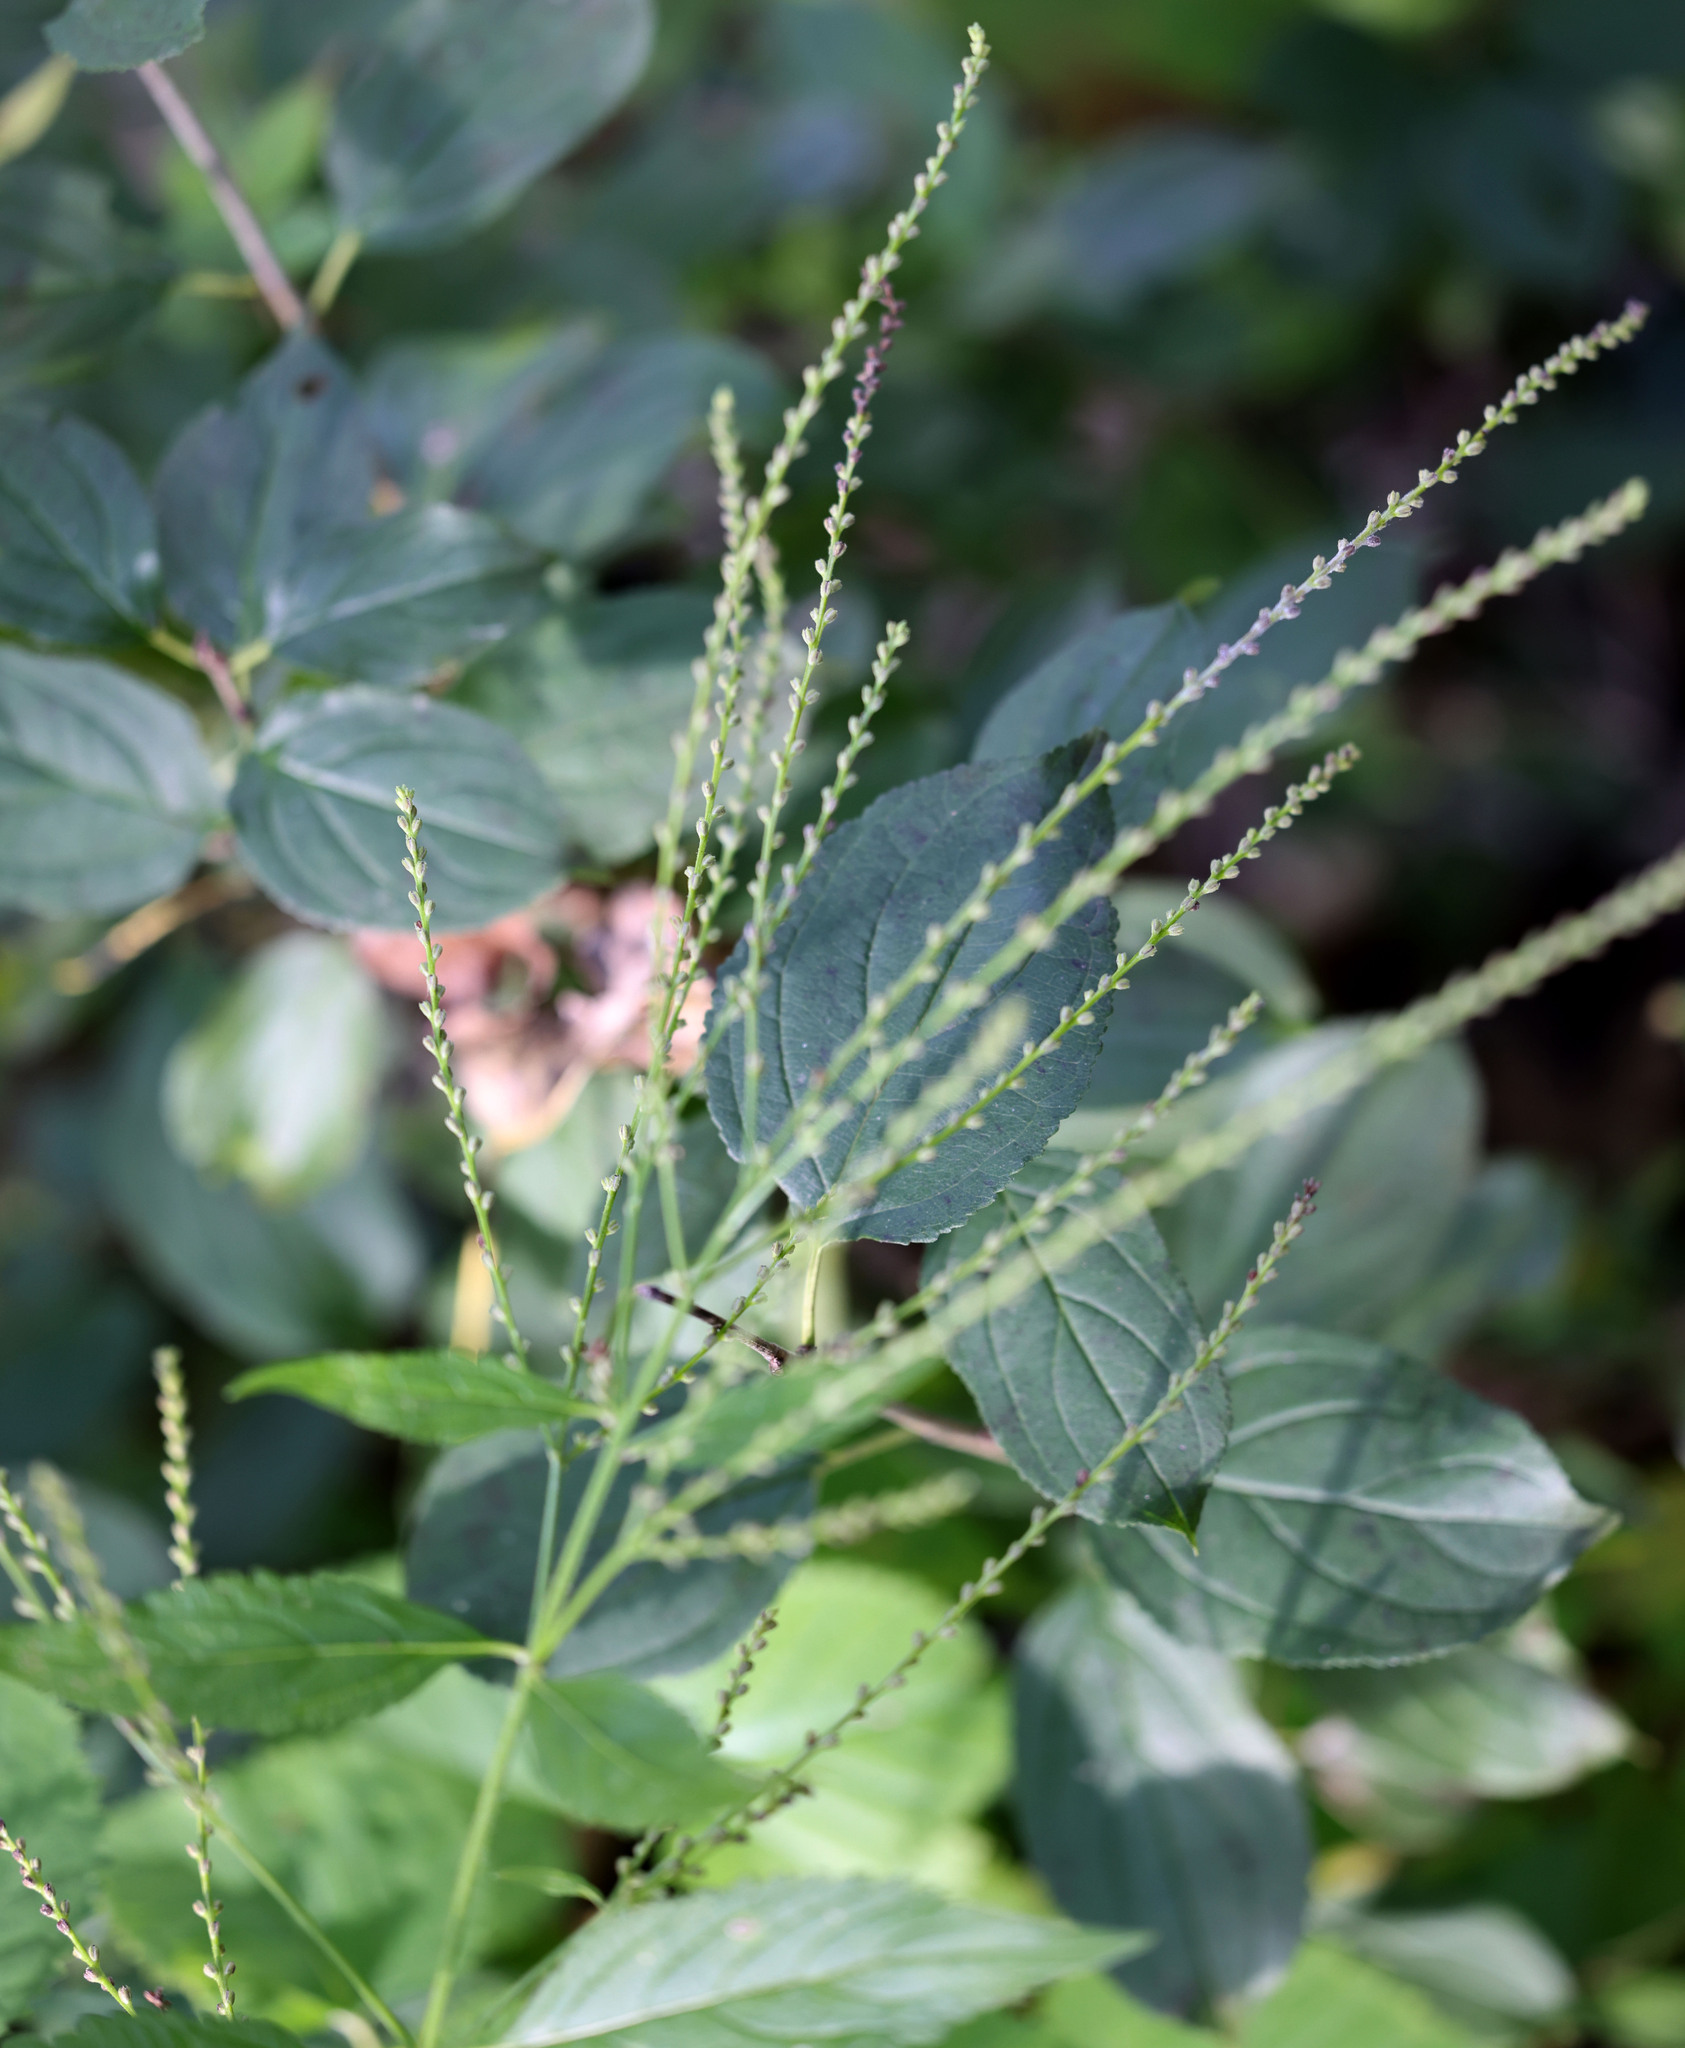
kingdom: Plantae
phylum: Tracheophyta
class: Magnoliopsida
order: Lamiales
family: Verbenaceae
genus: Verbena
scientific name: Verbena urticifolia
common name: Nettle-leaved vervain
